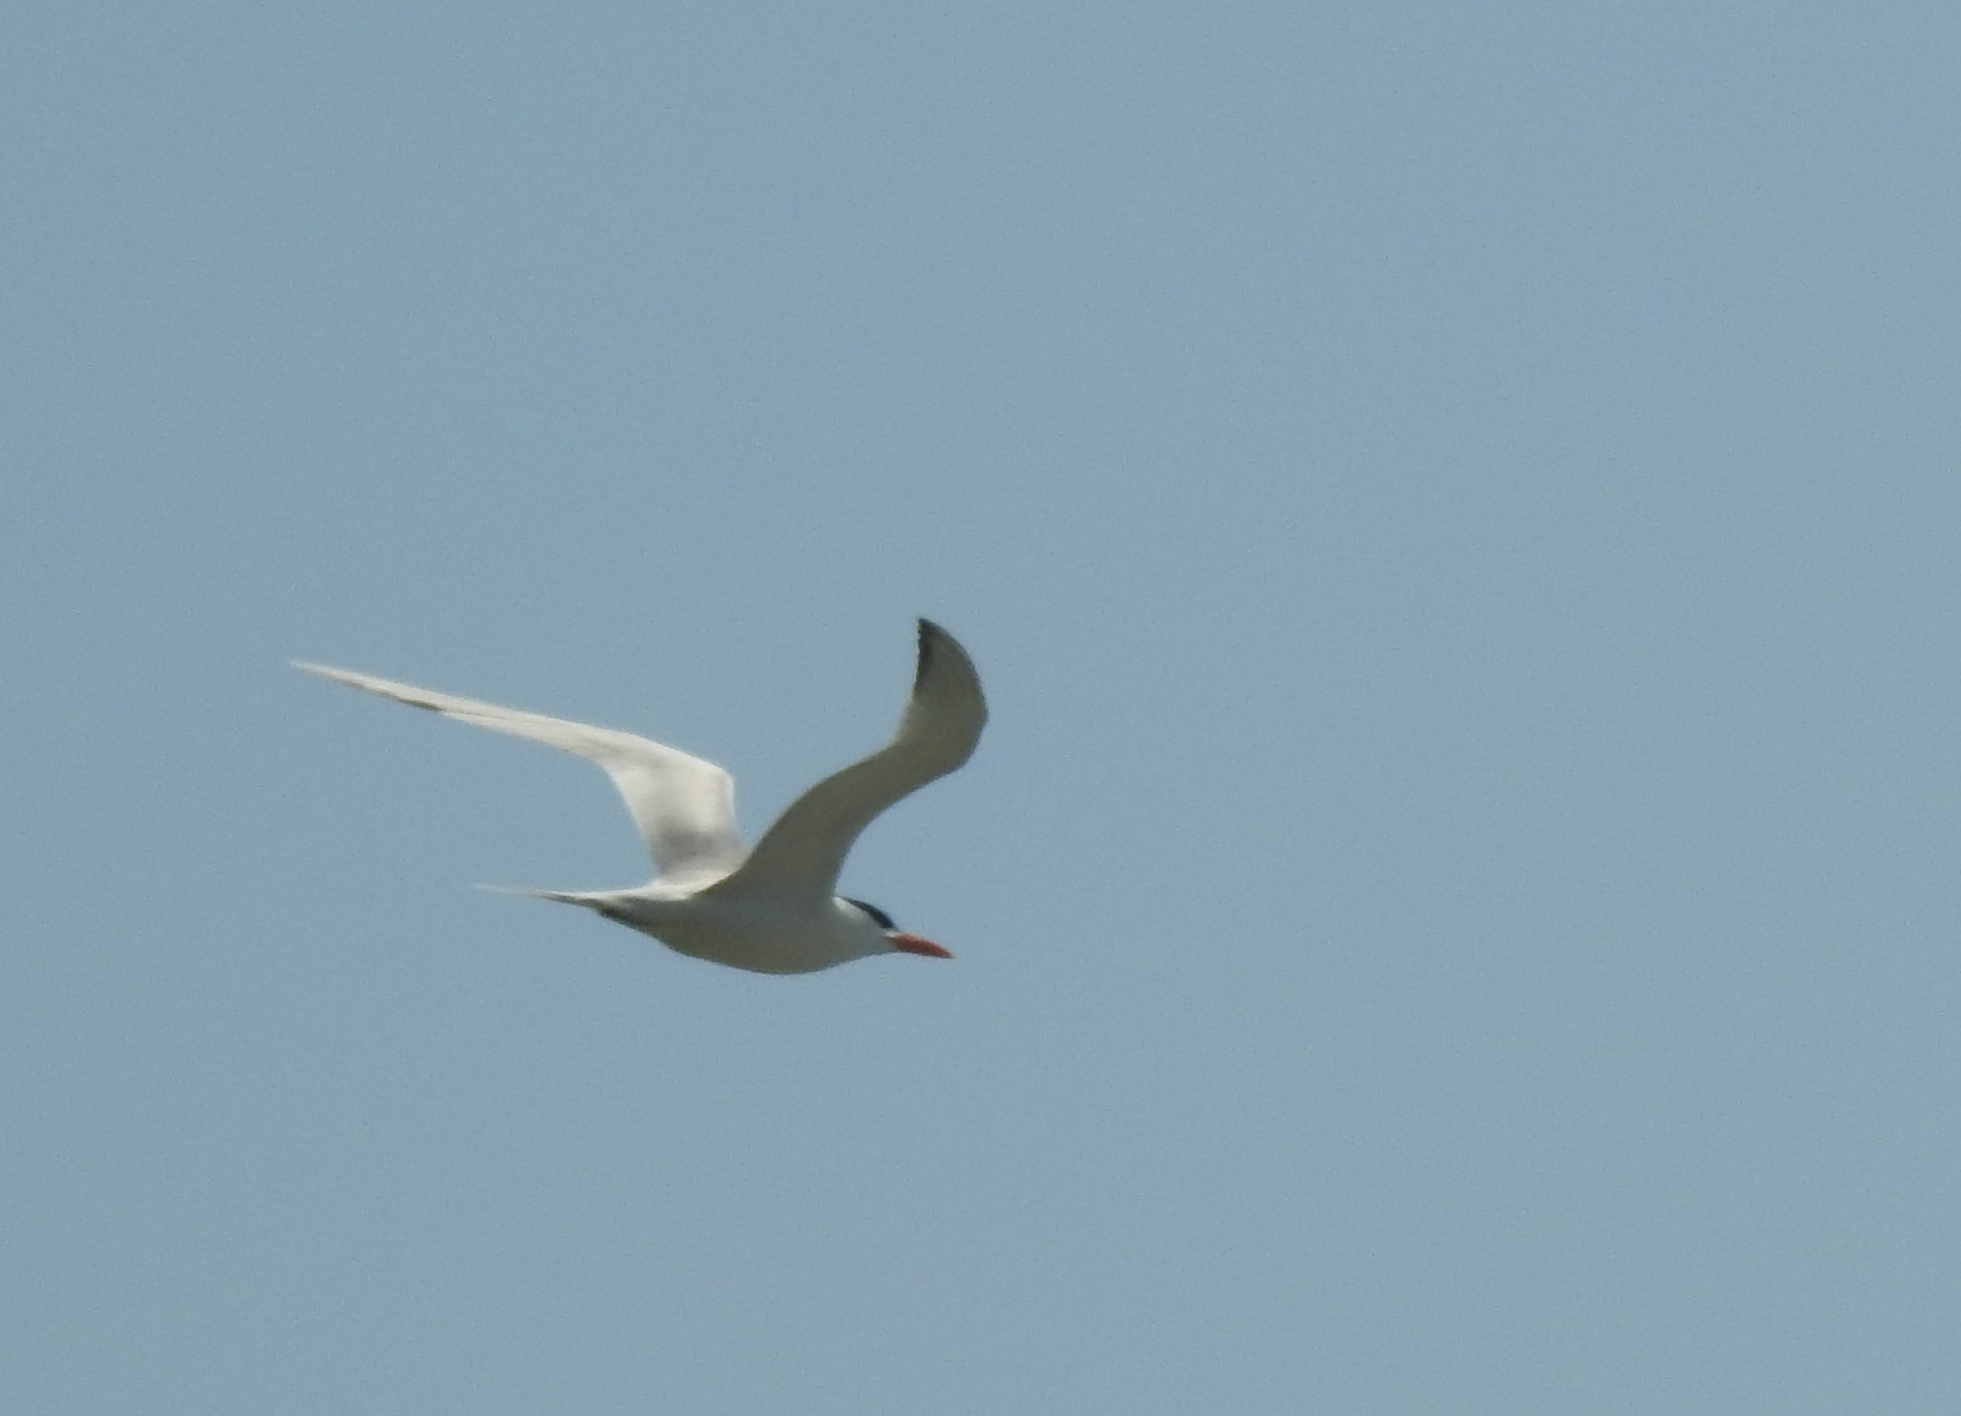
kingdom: Animalia
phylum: Chordata
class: Aves
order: Charadriiformes
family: Laridae
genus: Thalasseus
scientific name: Thalasseus maximus
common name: Royal tern
